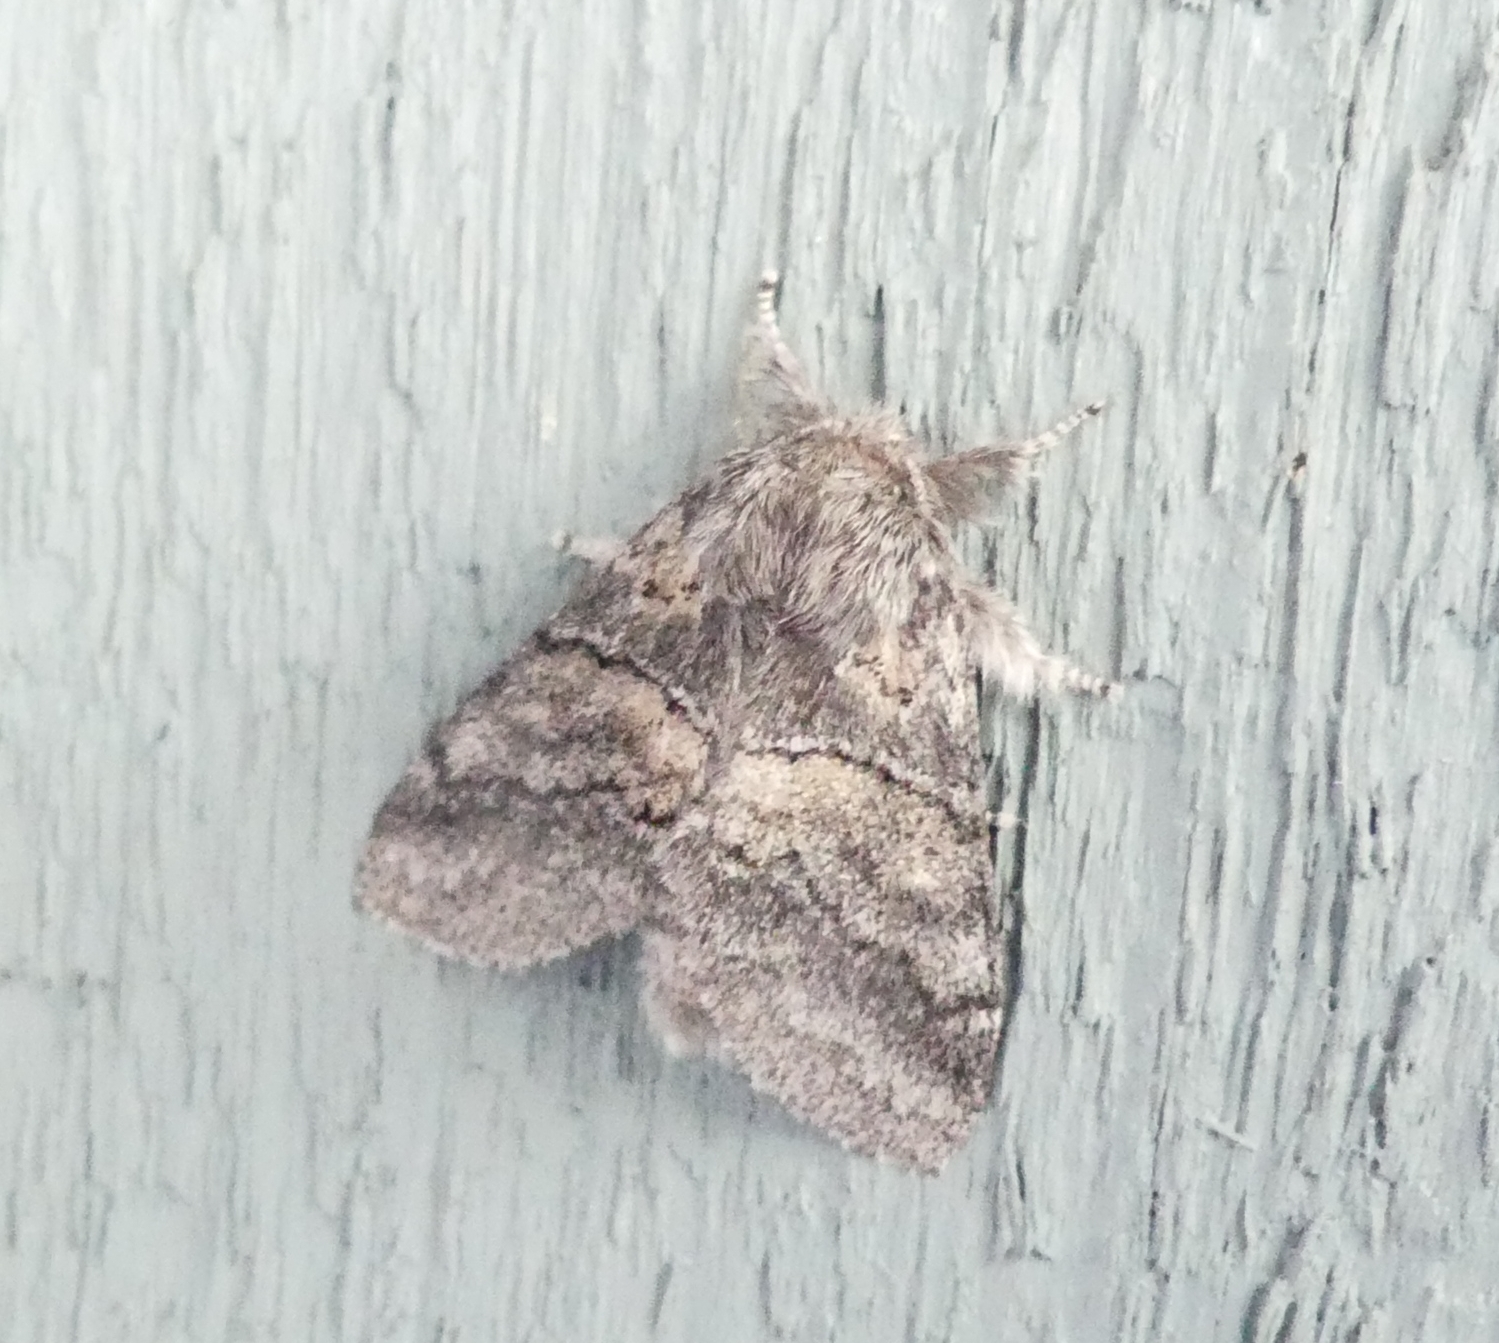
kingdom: Animalia
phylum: Arthropoda
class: Insecta
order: Lepidoptera
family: Notodontidae
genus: Gluphisia
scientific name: Gluphisia septentrionis
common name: Common gluphisia
